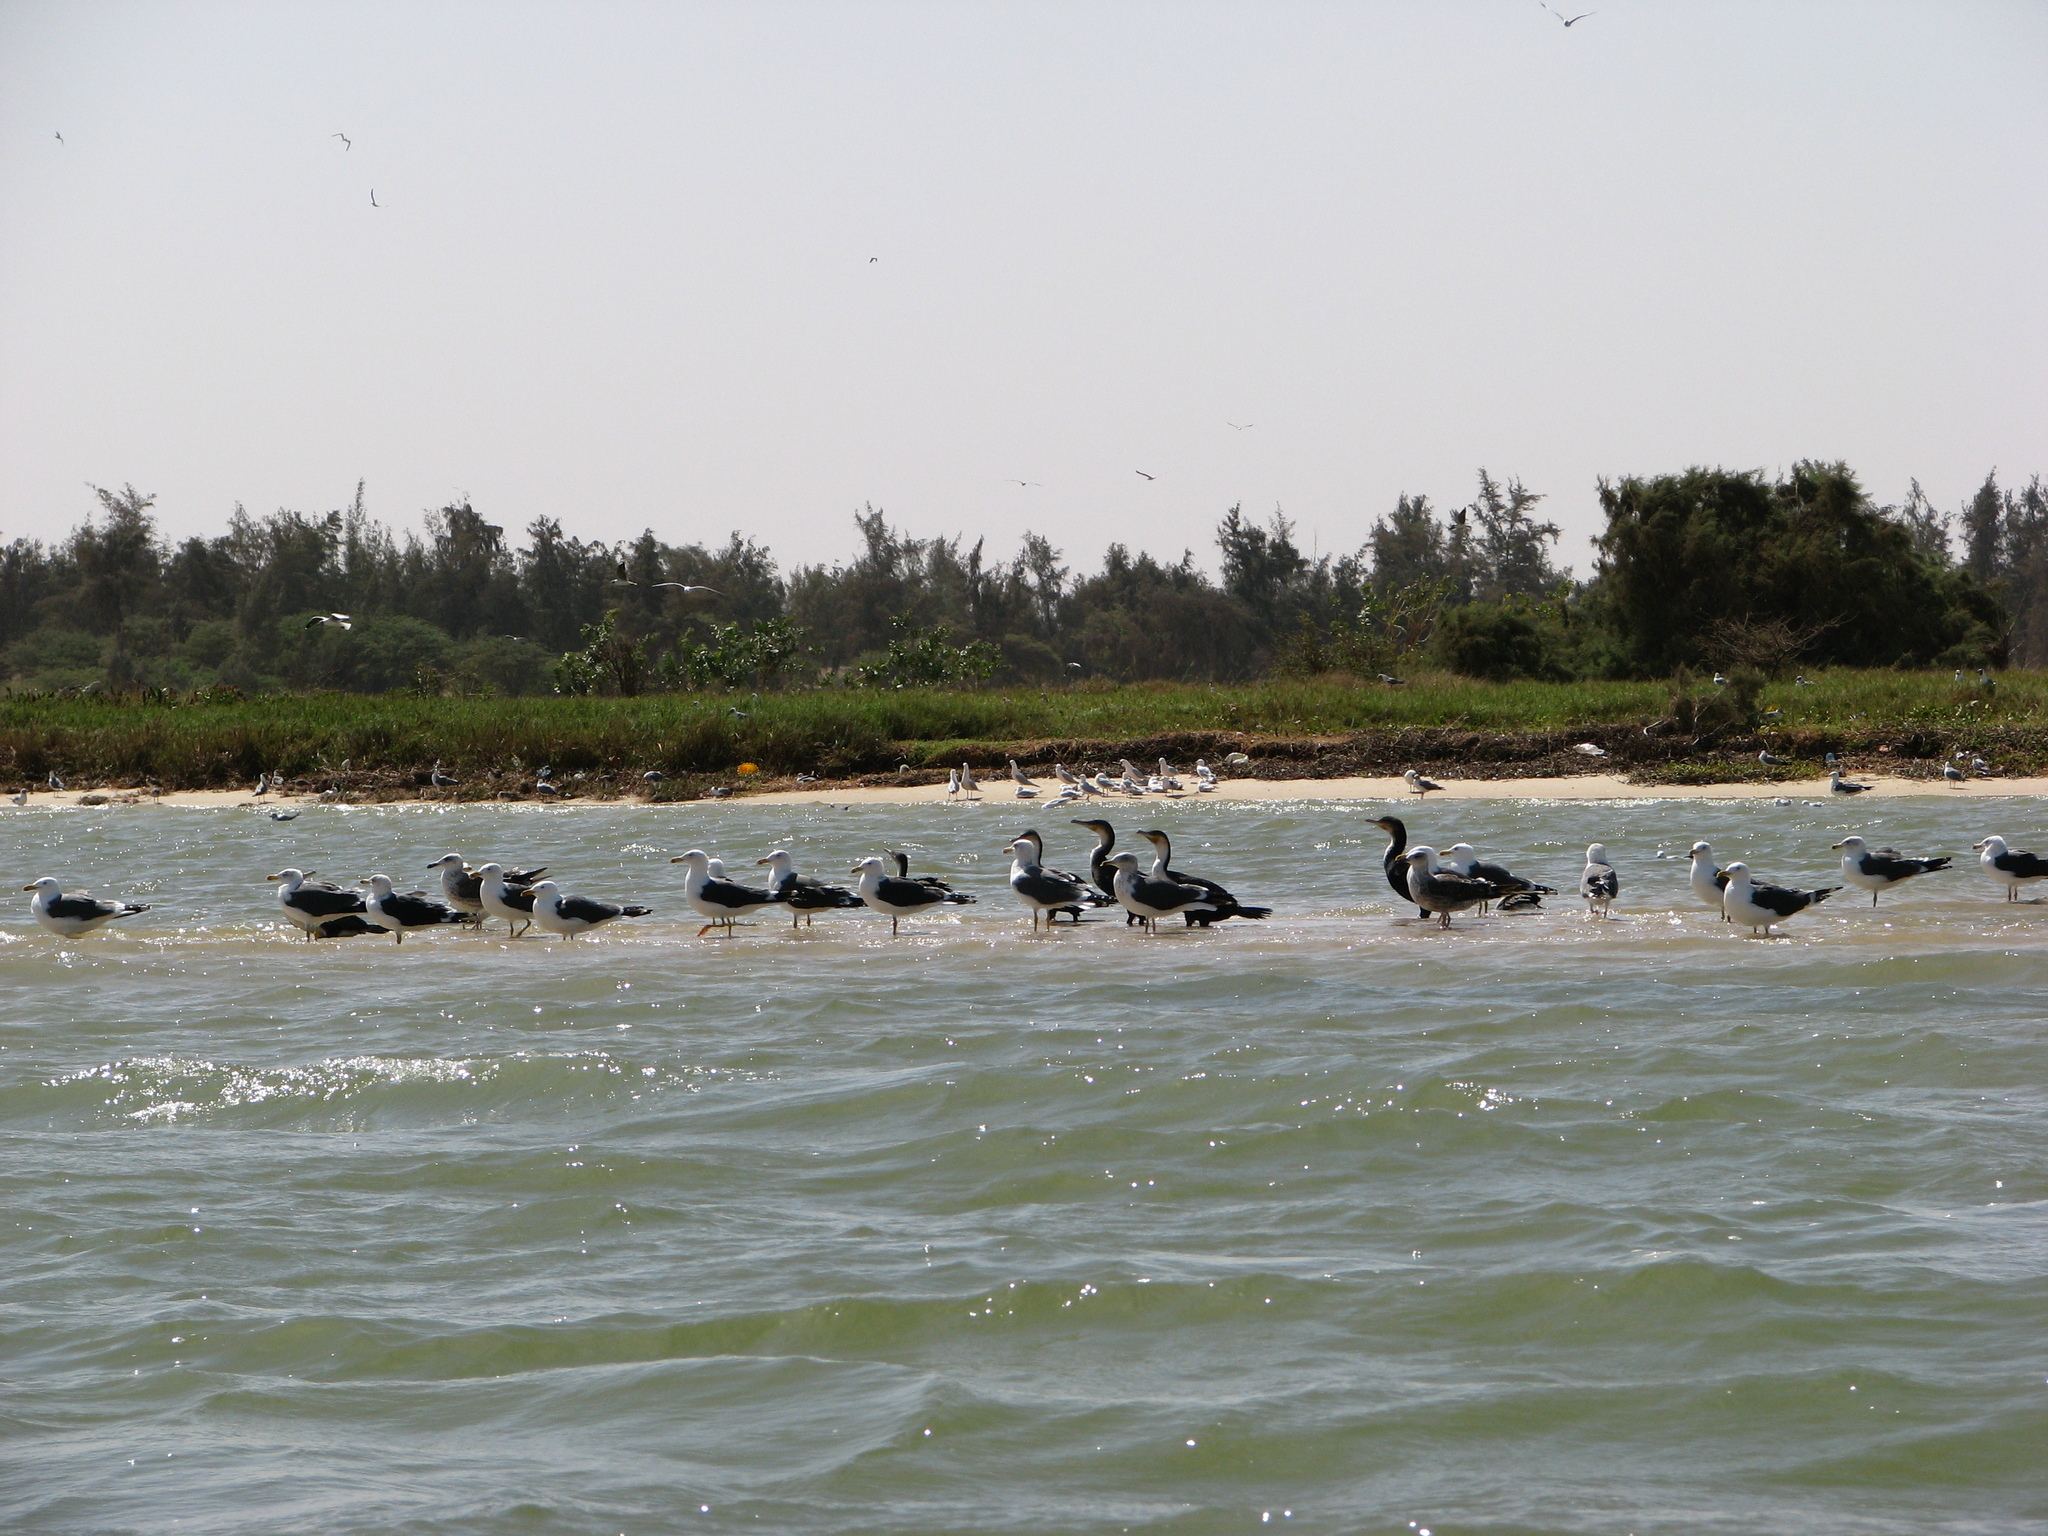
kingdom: Animalia
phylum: Chordata
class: Aves
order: Charadriiformes
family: Laridae
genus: Larus
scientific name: Larus fuscus
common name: Lesser black-backed gull
